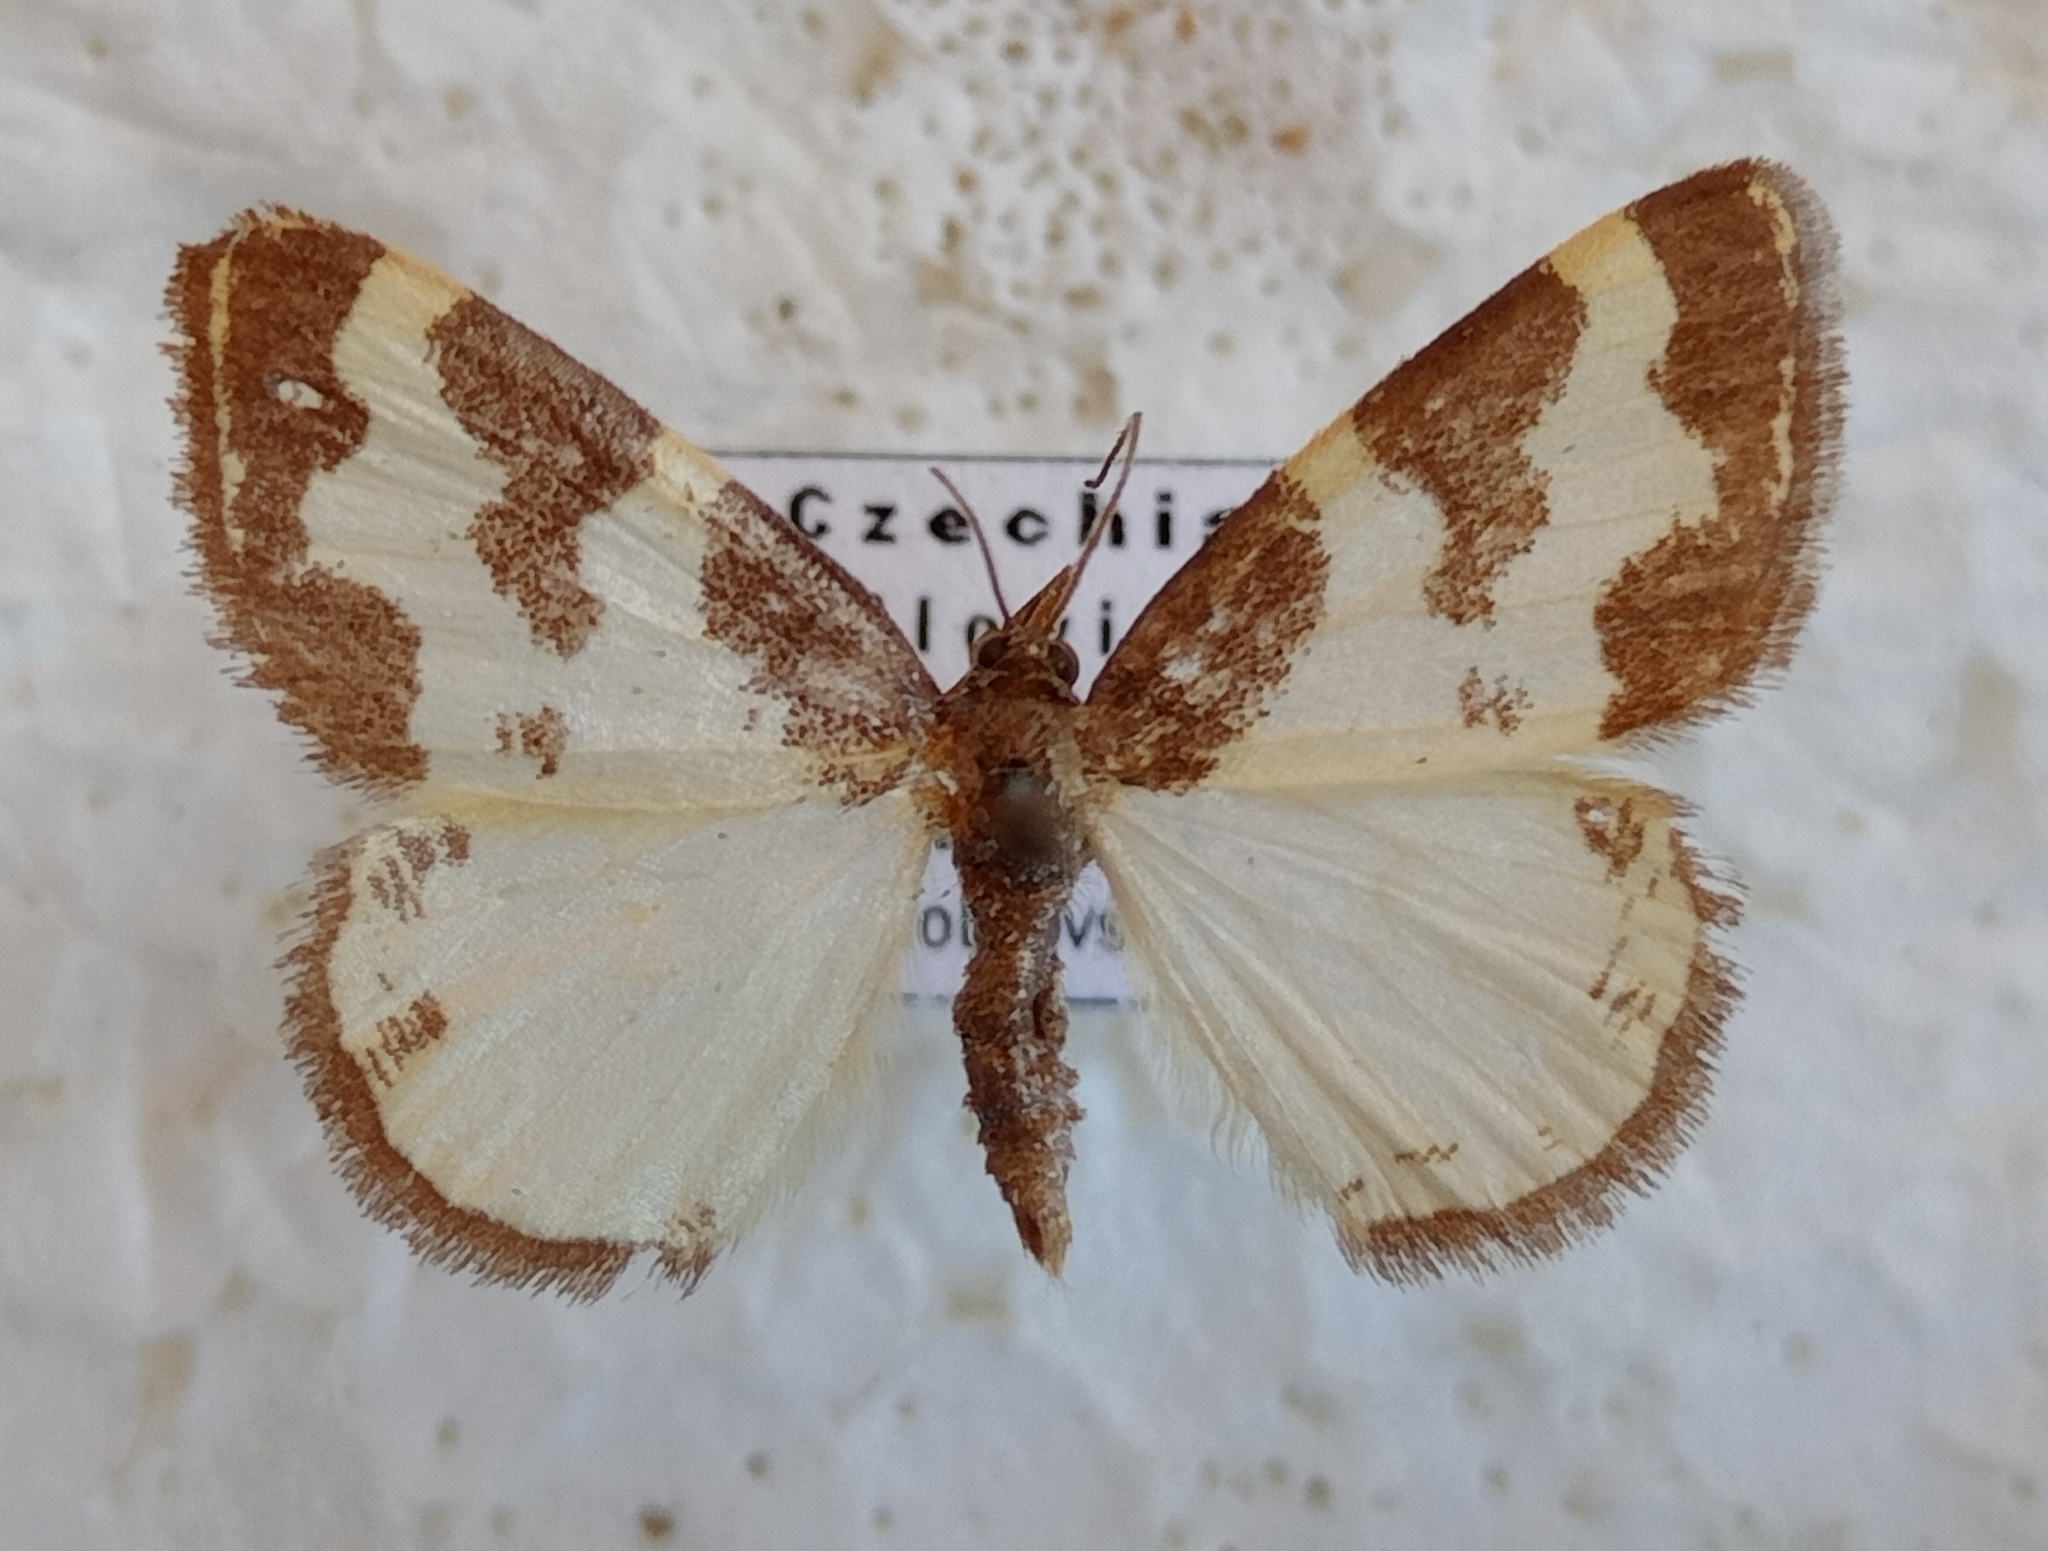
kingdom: Animalia
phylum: Arthropoda
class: Insecta
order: Lepidoptera
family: Geometridae
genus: Lomaspilis
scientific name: Lomaspilis marginata
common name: Clouded border
